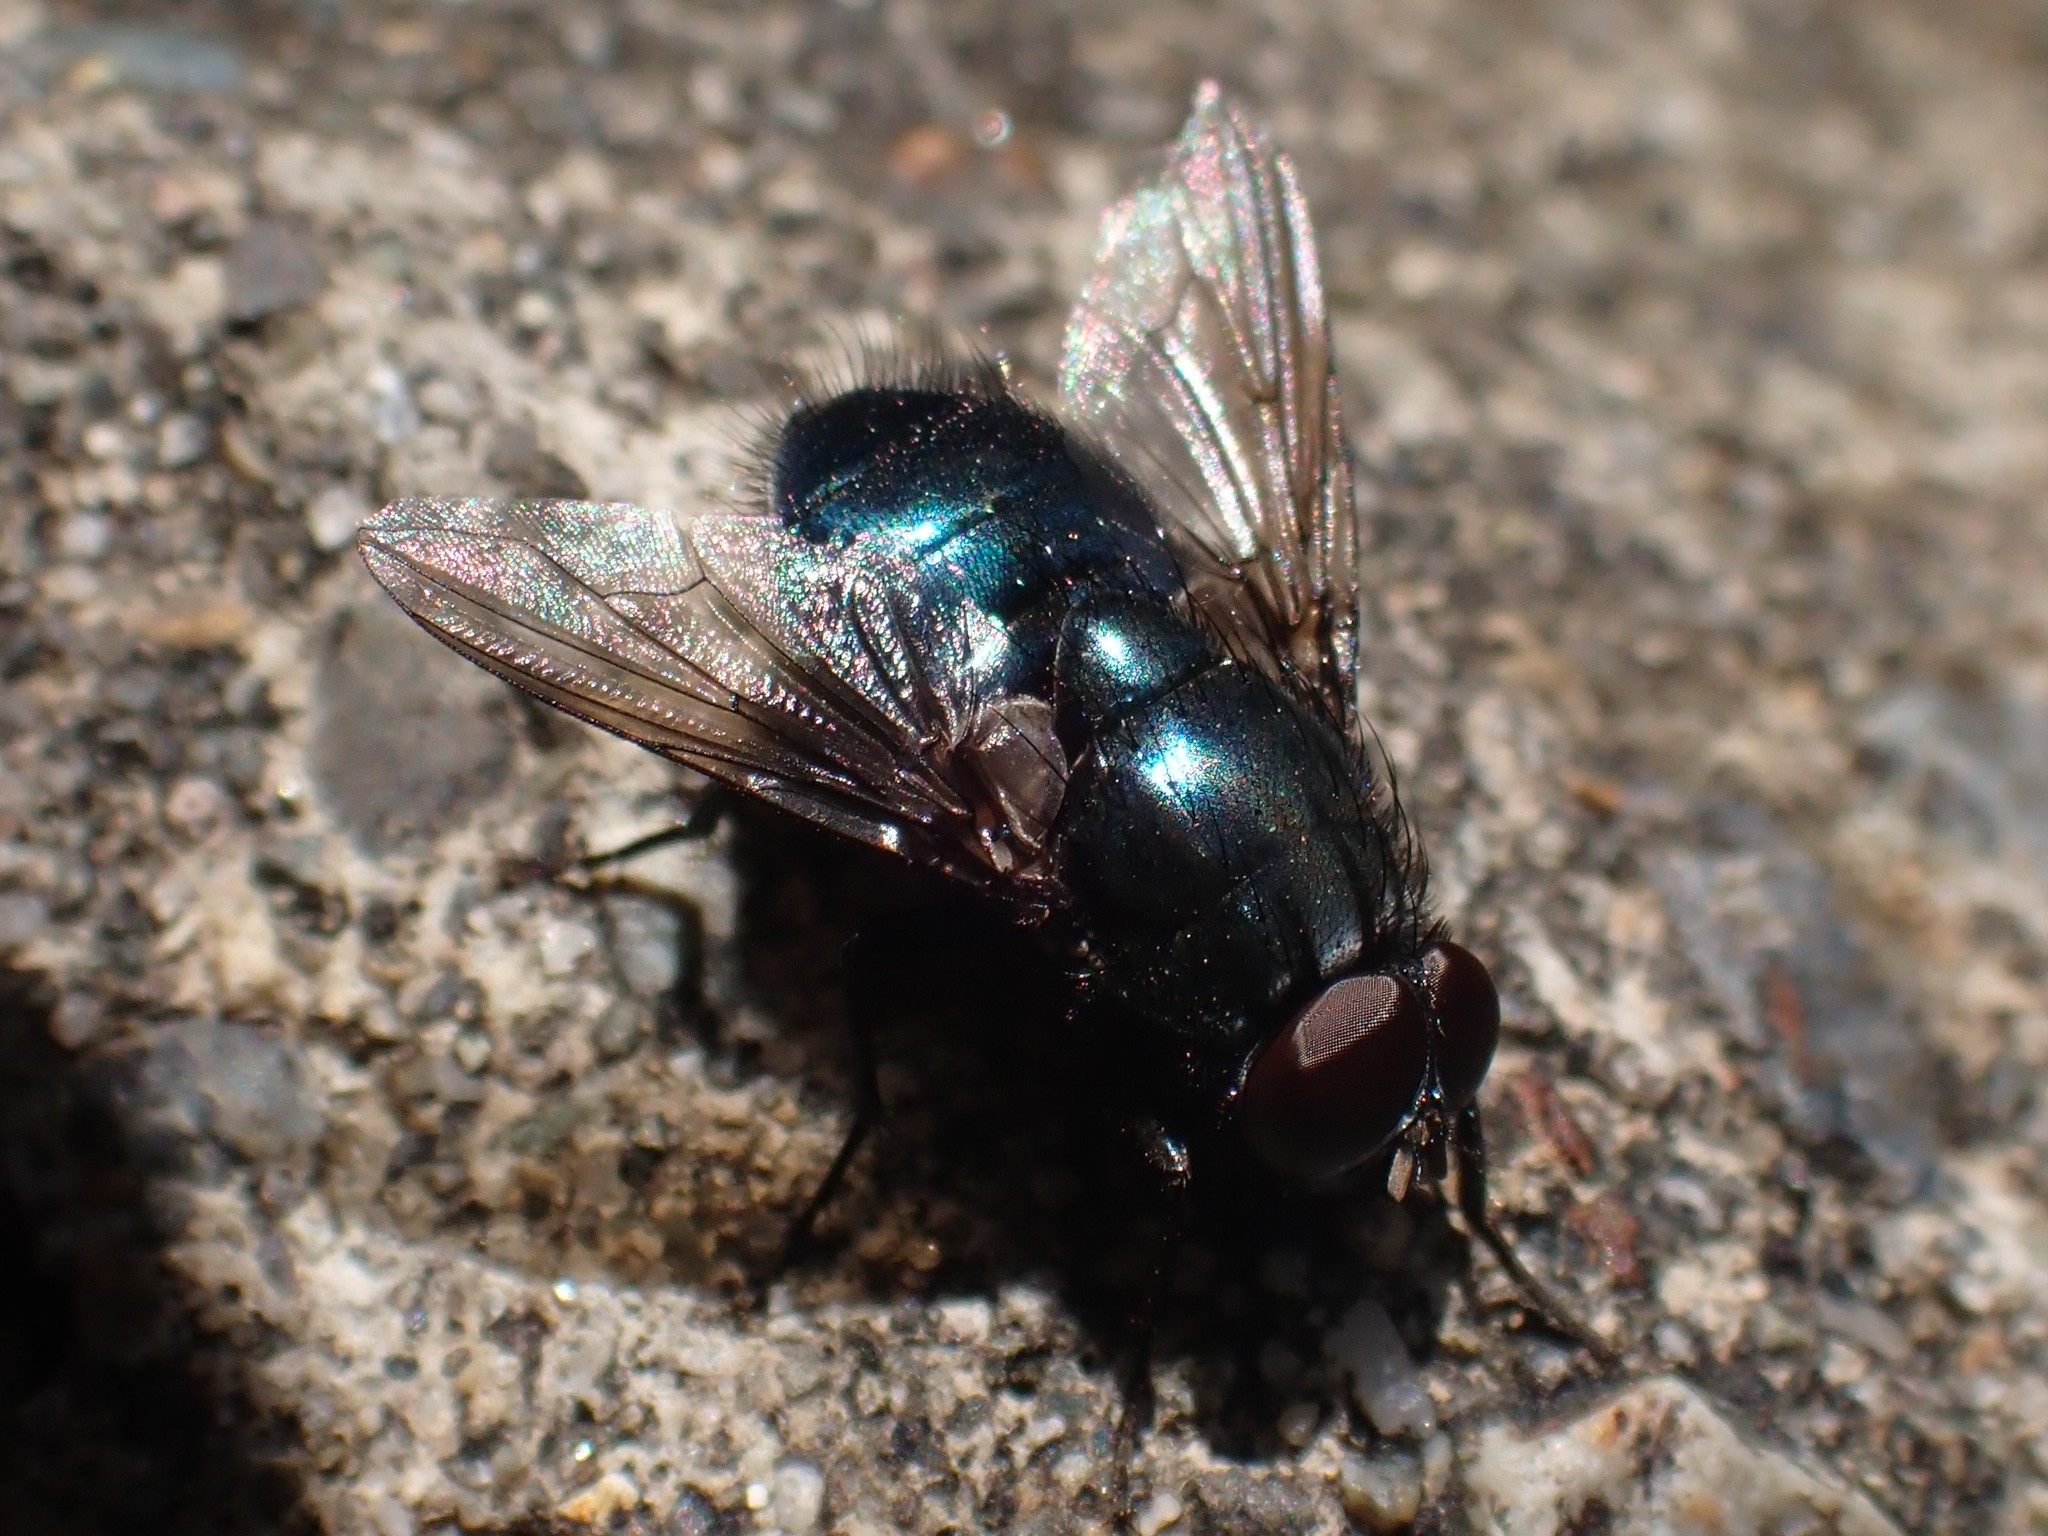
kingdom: Animalia
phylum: Arthropoda
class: Insecta
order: Diptera
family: Muscidae
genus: Eudasyphora
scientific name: Eudasyphora
